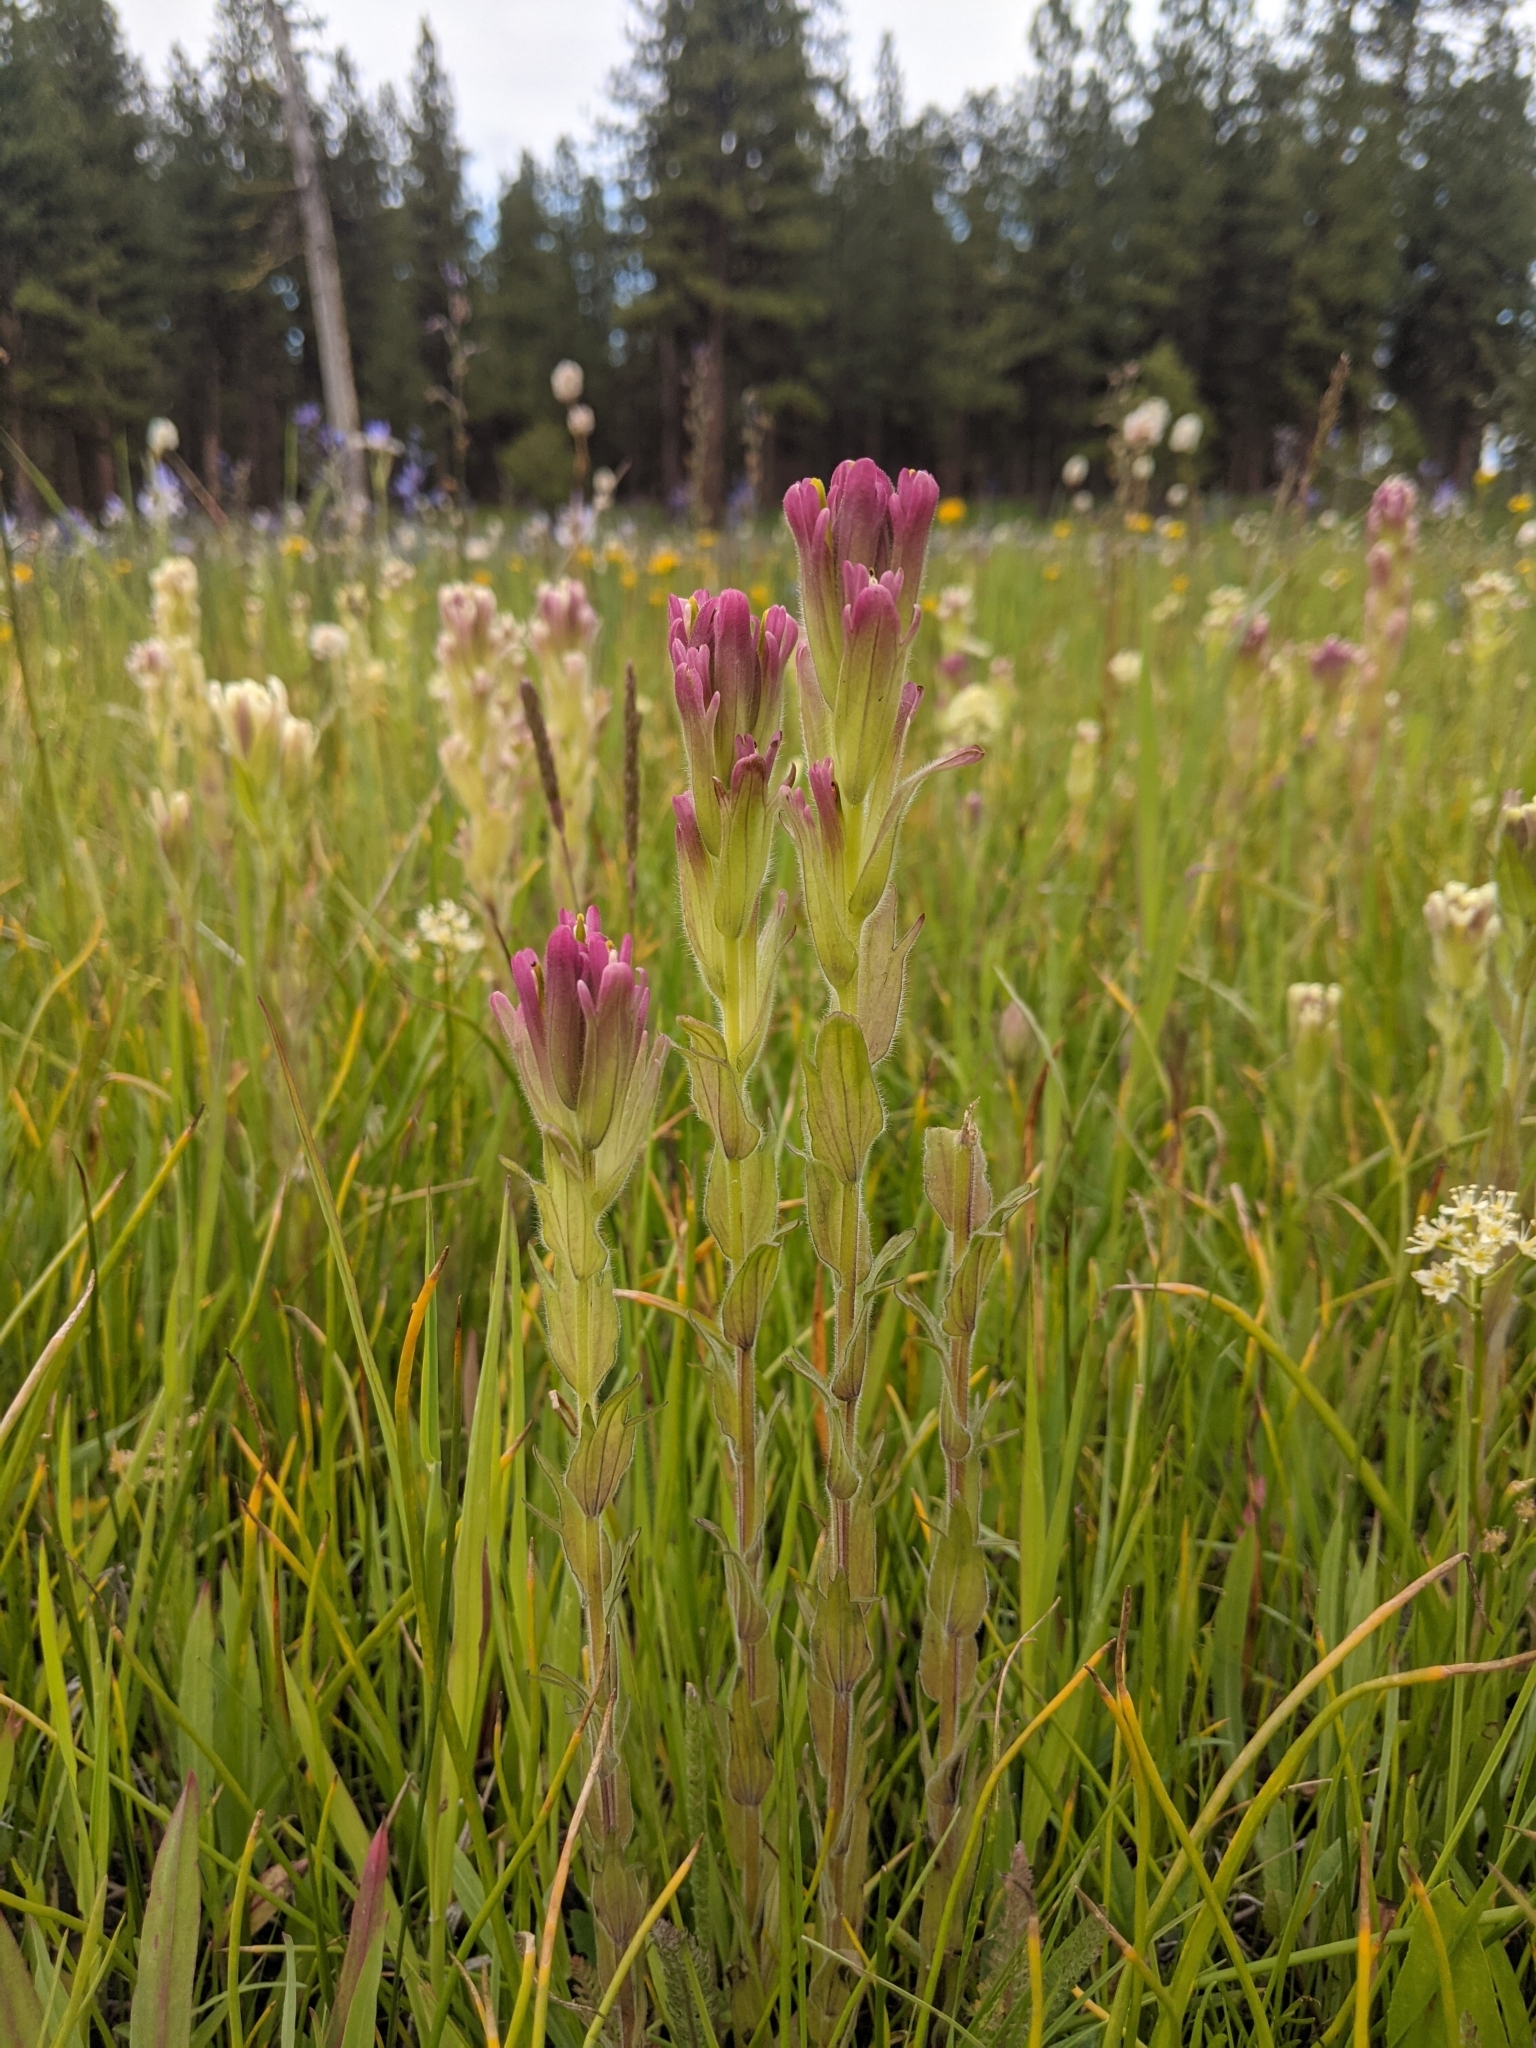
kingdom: Plantae
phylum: Tracheophyta
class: Magnoliopsida
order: Lamiales
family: Orobanchaceae
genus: Castilleja
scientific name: Castilleja cusickii
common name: Cusick's paintbrush
